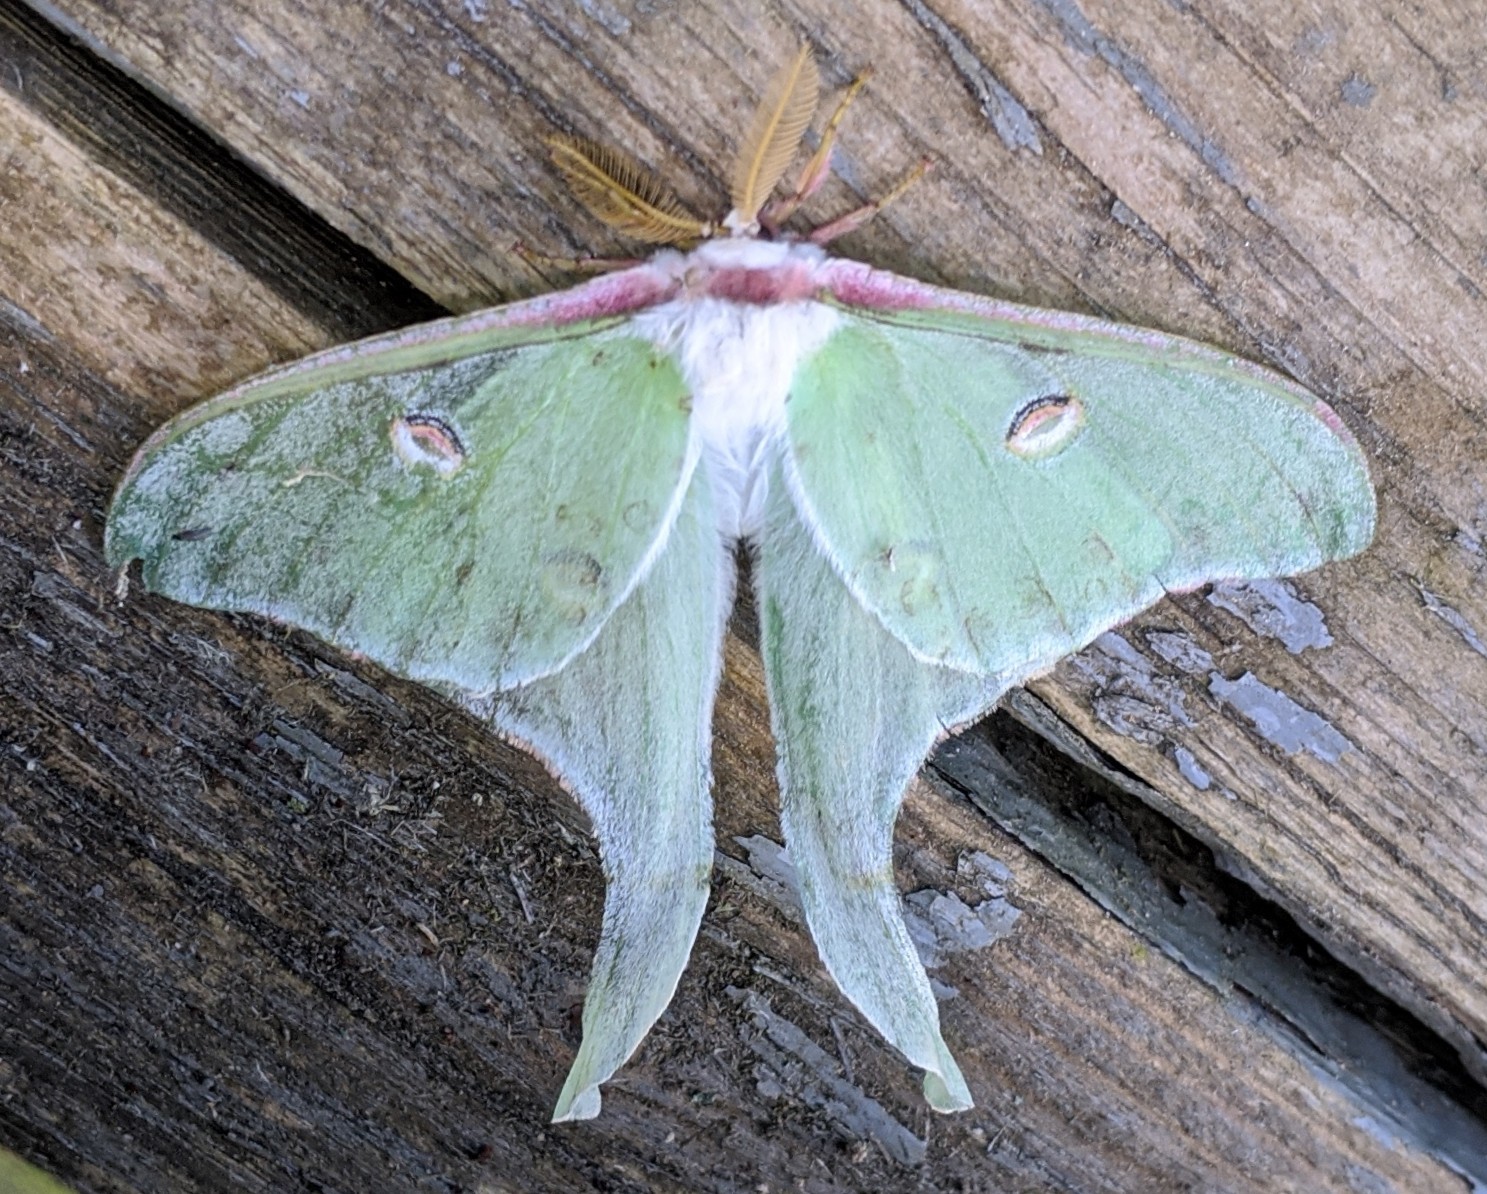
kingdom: Animalia
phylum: Arthropoda
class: Insecta
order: Lepidoptera
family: Saturniidae
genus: Actias
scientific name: Actias luna
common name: Luna moth
